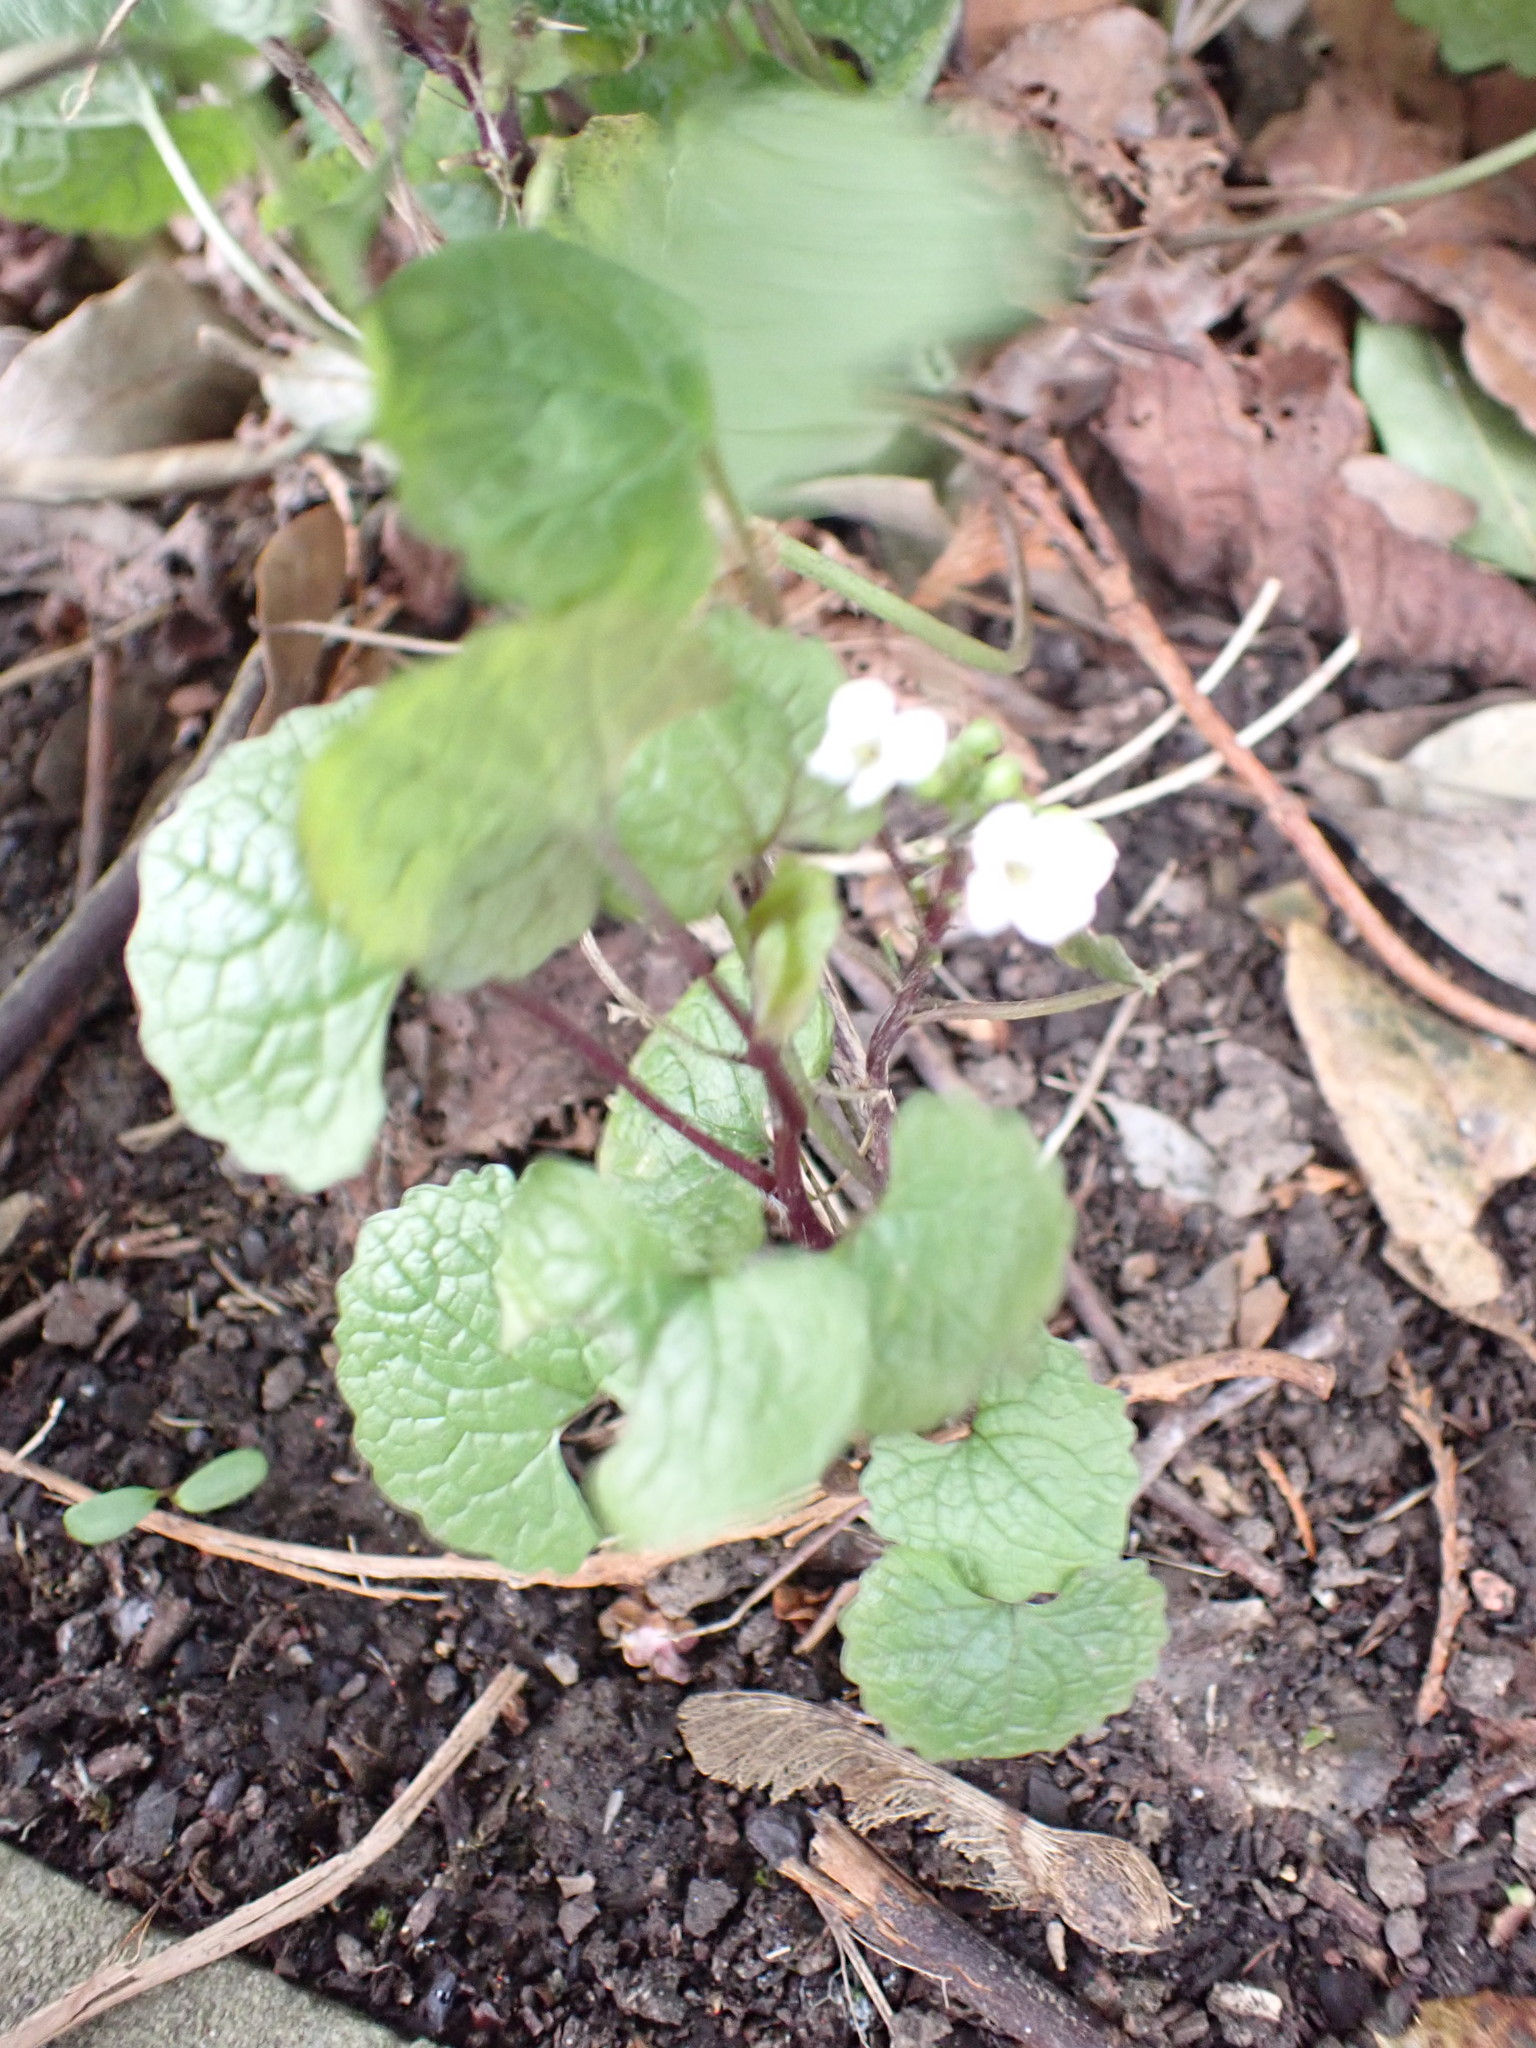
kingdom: Plantae
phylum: Tracheophyta
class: Magnoliopsida
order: Brassicales
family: Brassicaceae
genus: Alliaria
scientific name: Alliaria petiolata
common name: Garlic mustard
